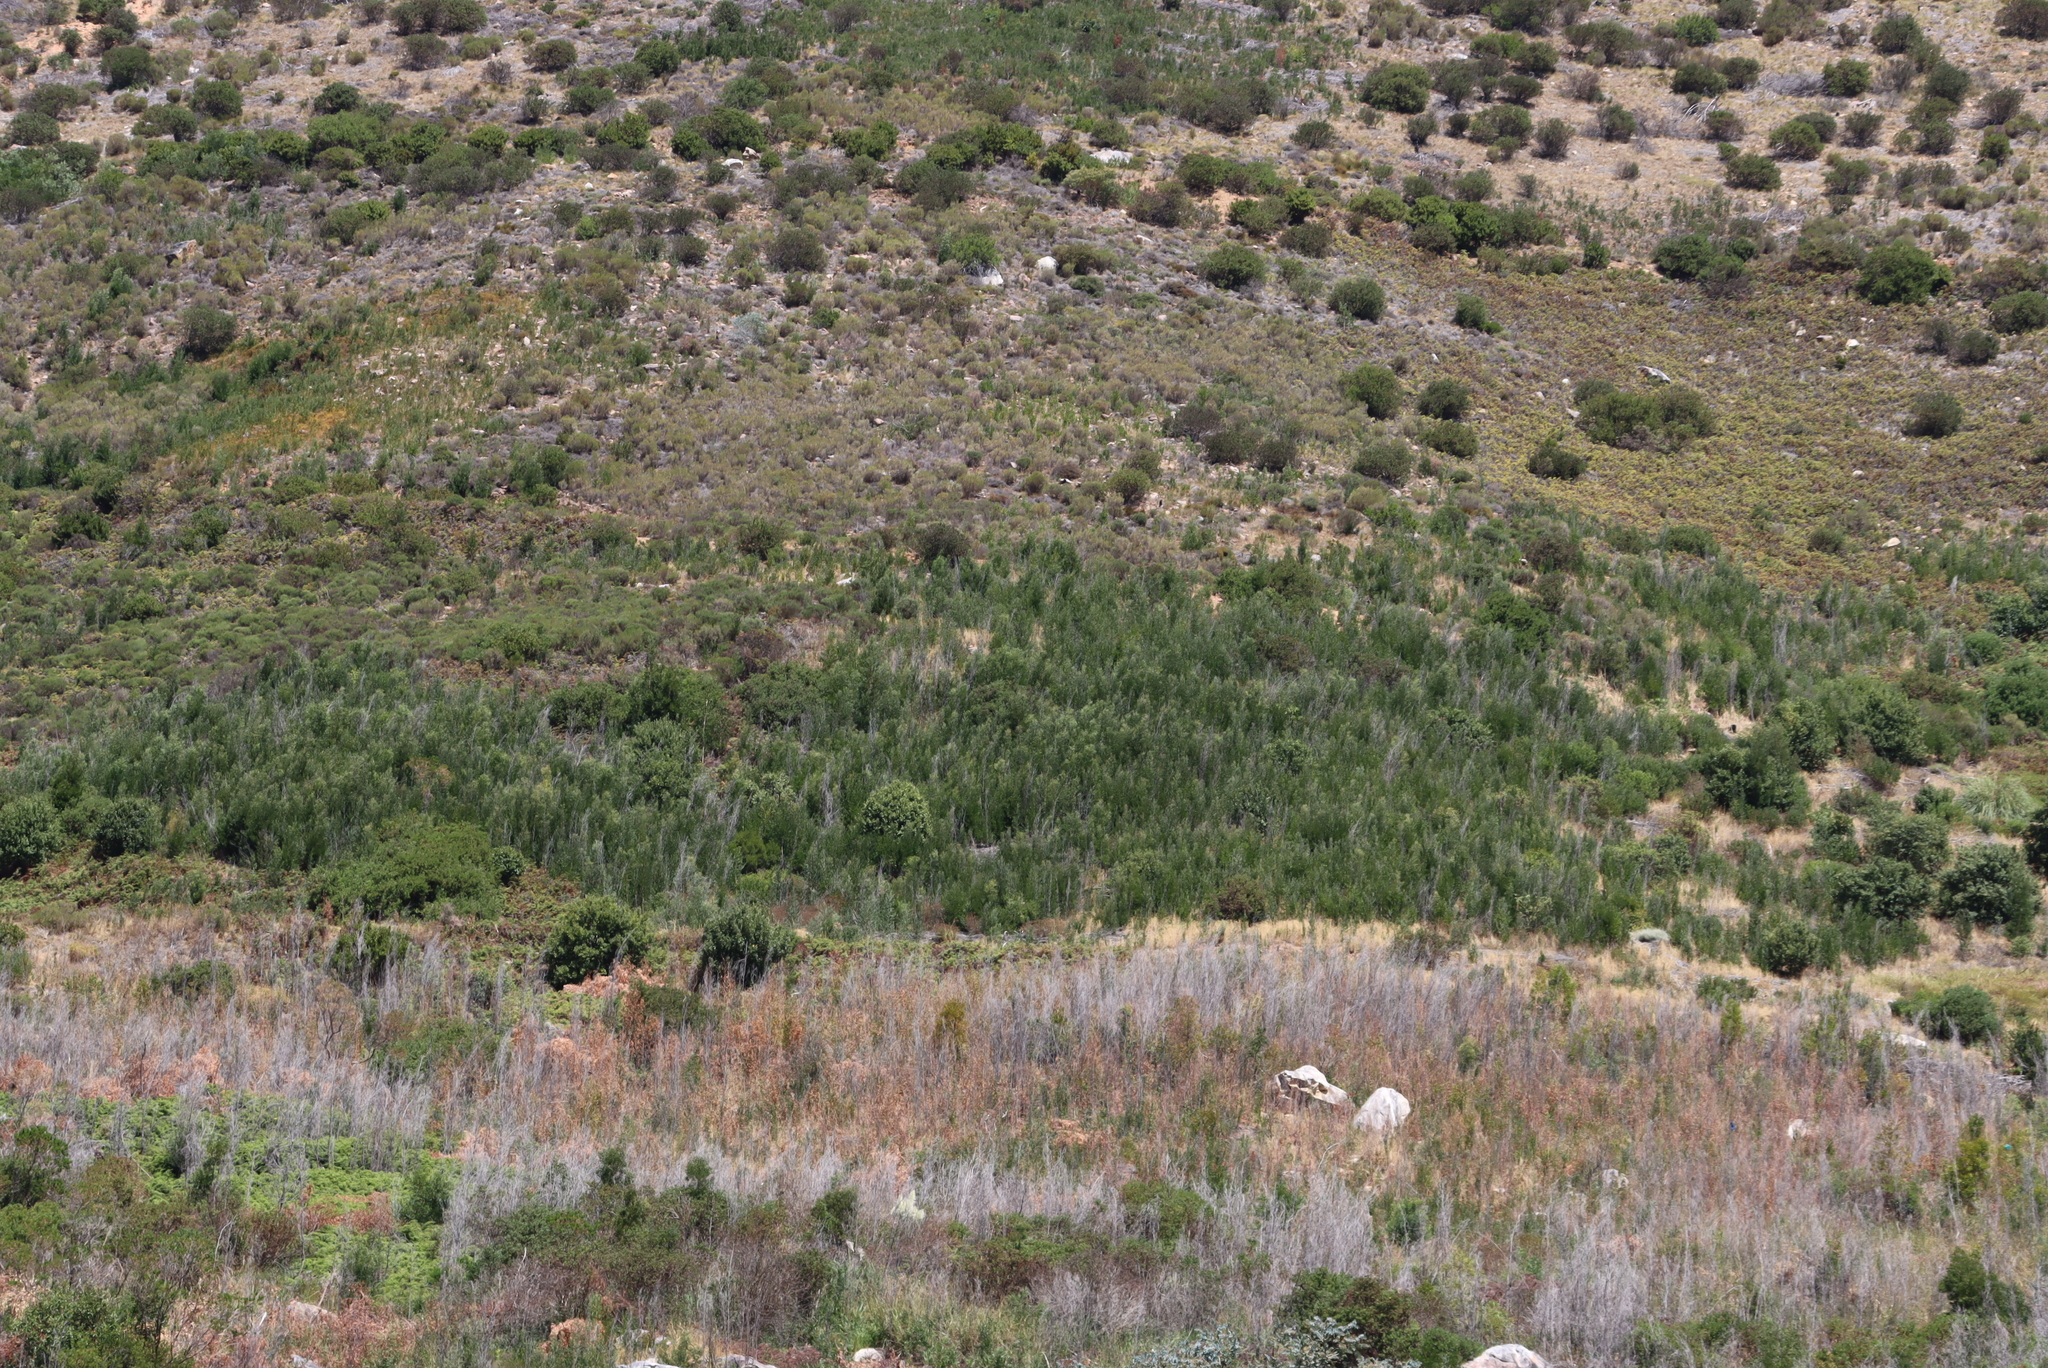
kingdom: Plantae
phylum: Tracheophyta
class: Magnoliopsida
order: Fabales
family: Fabaceae
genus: Acacia
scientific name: Acacia melanoxylon
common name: Blackwood
